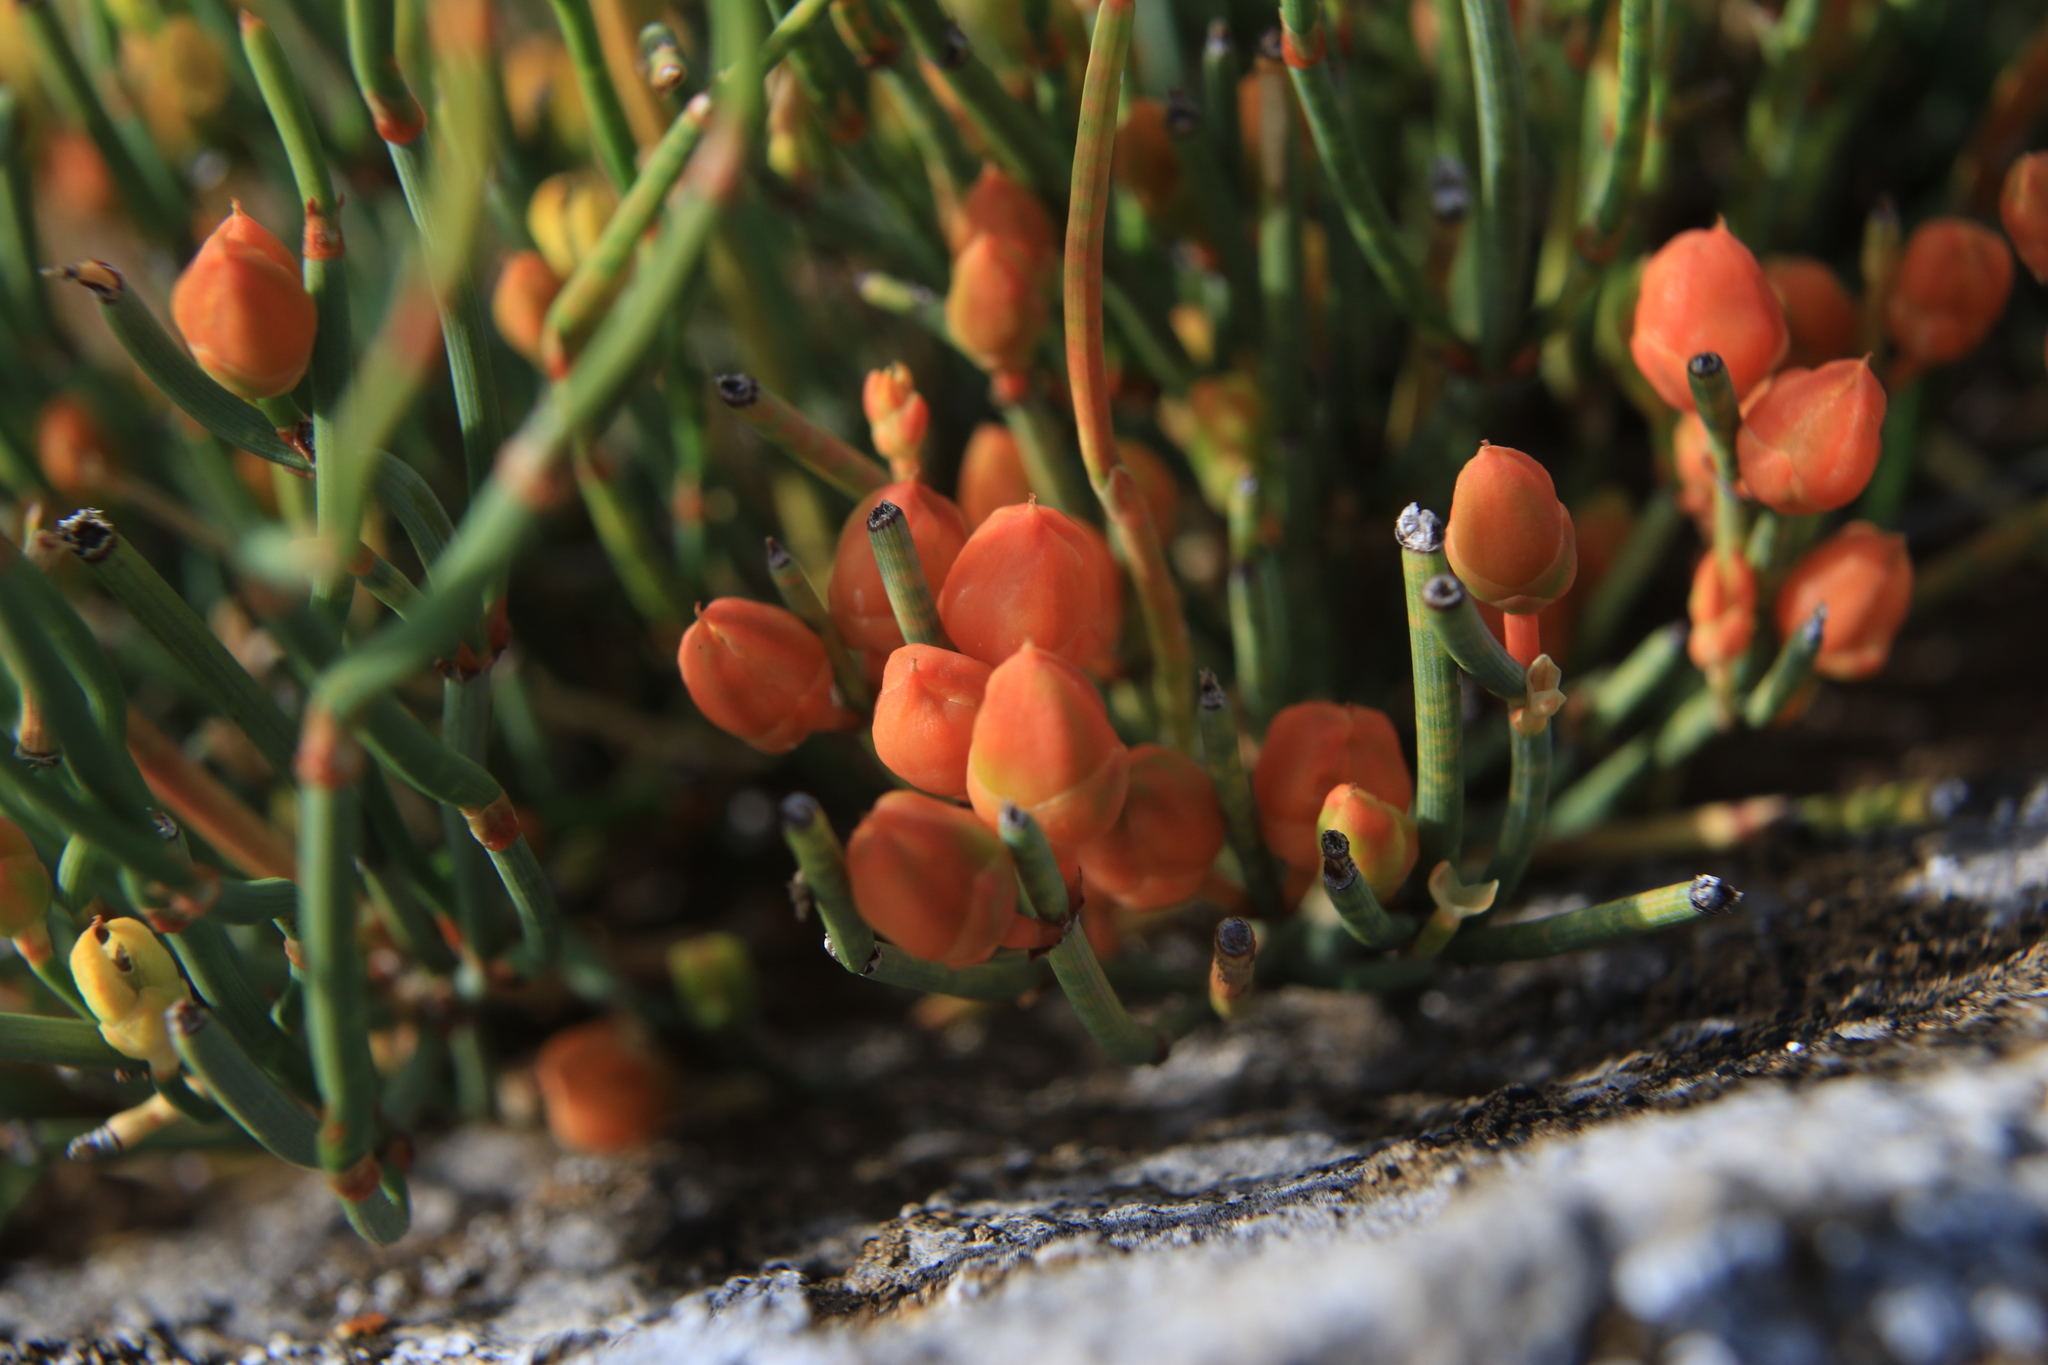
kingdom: Plantae
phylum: Tracheophyta
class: Gnetopsida
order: Ephedrales
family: Ephedraceae
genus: Ephedra
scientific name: Ephedra distachya
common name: Sea grape
